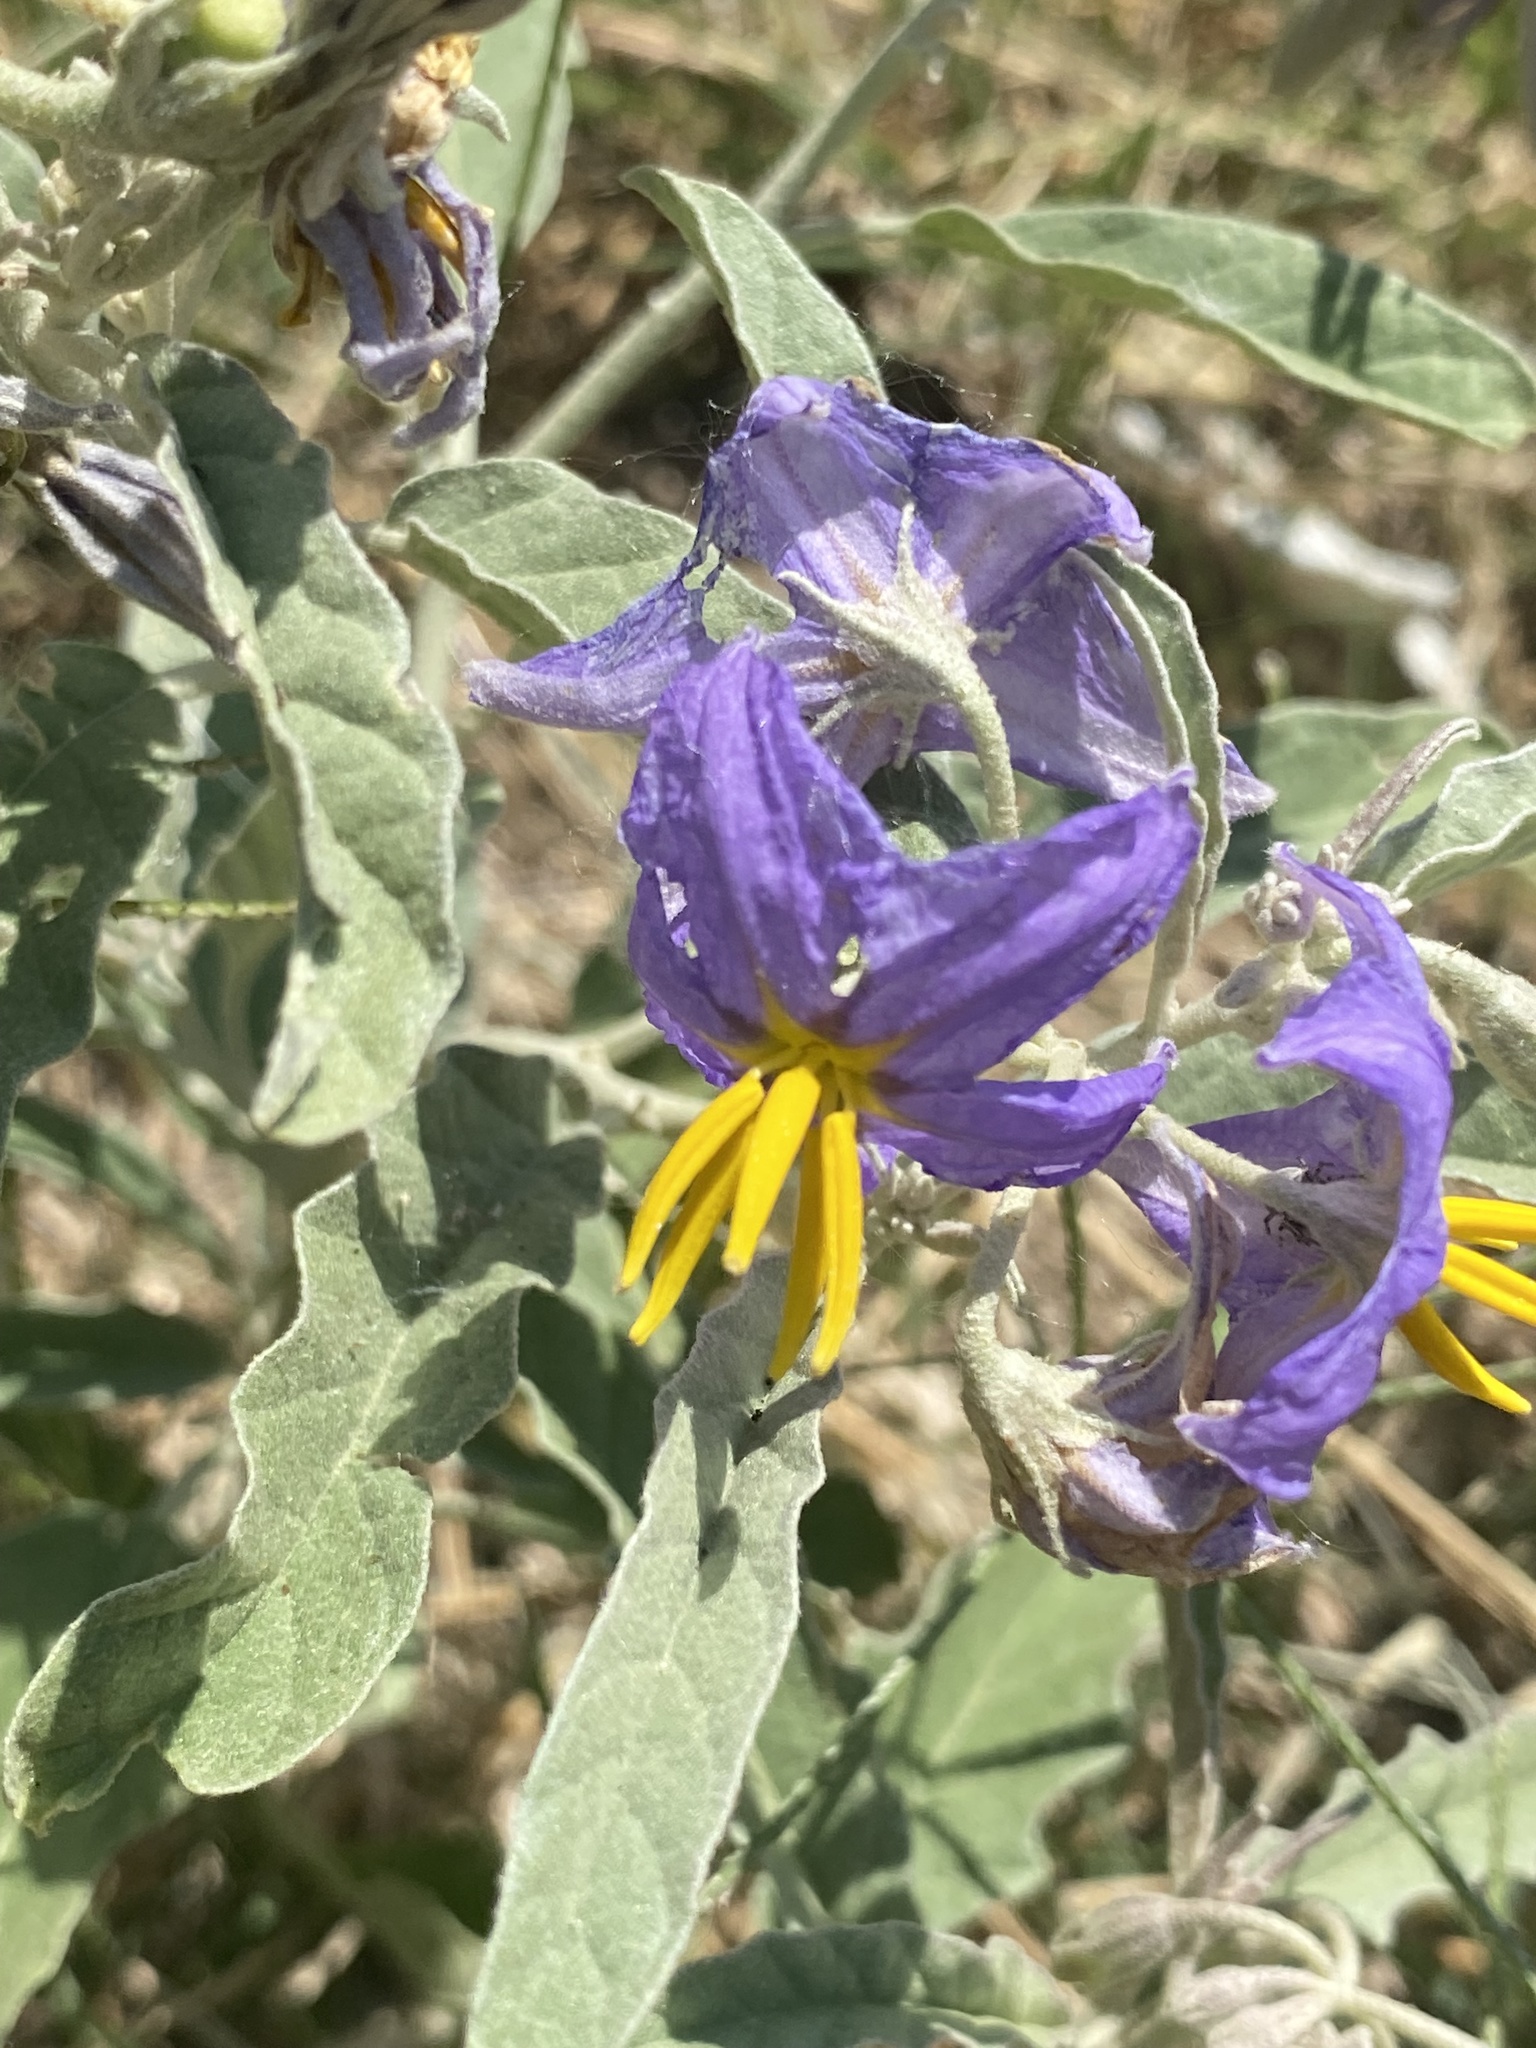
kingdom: Plantae
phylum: Tracheophyta
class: Magnoliopsida
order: Solanales
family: Solanaceae
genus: Solanum
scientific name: Solanum elaeagnifolium
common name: Silverleaf nightshade
